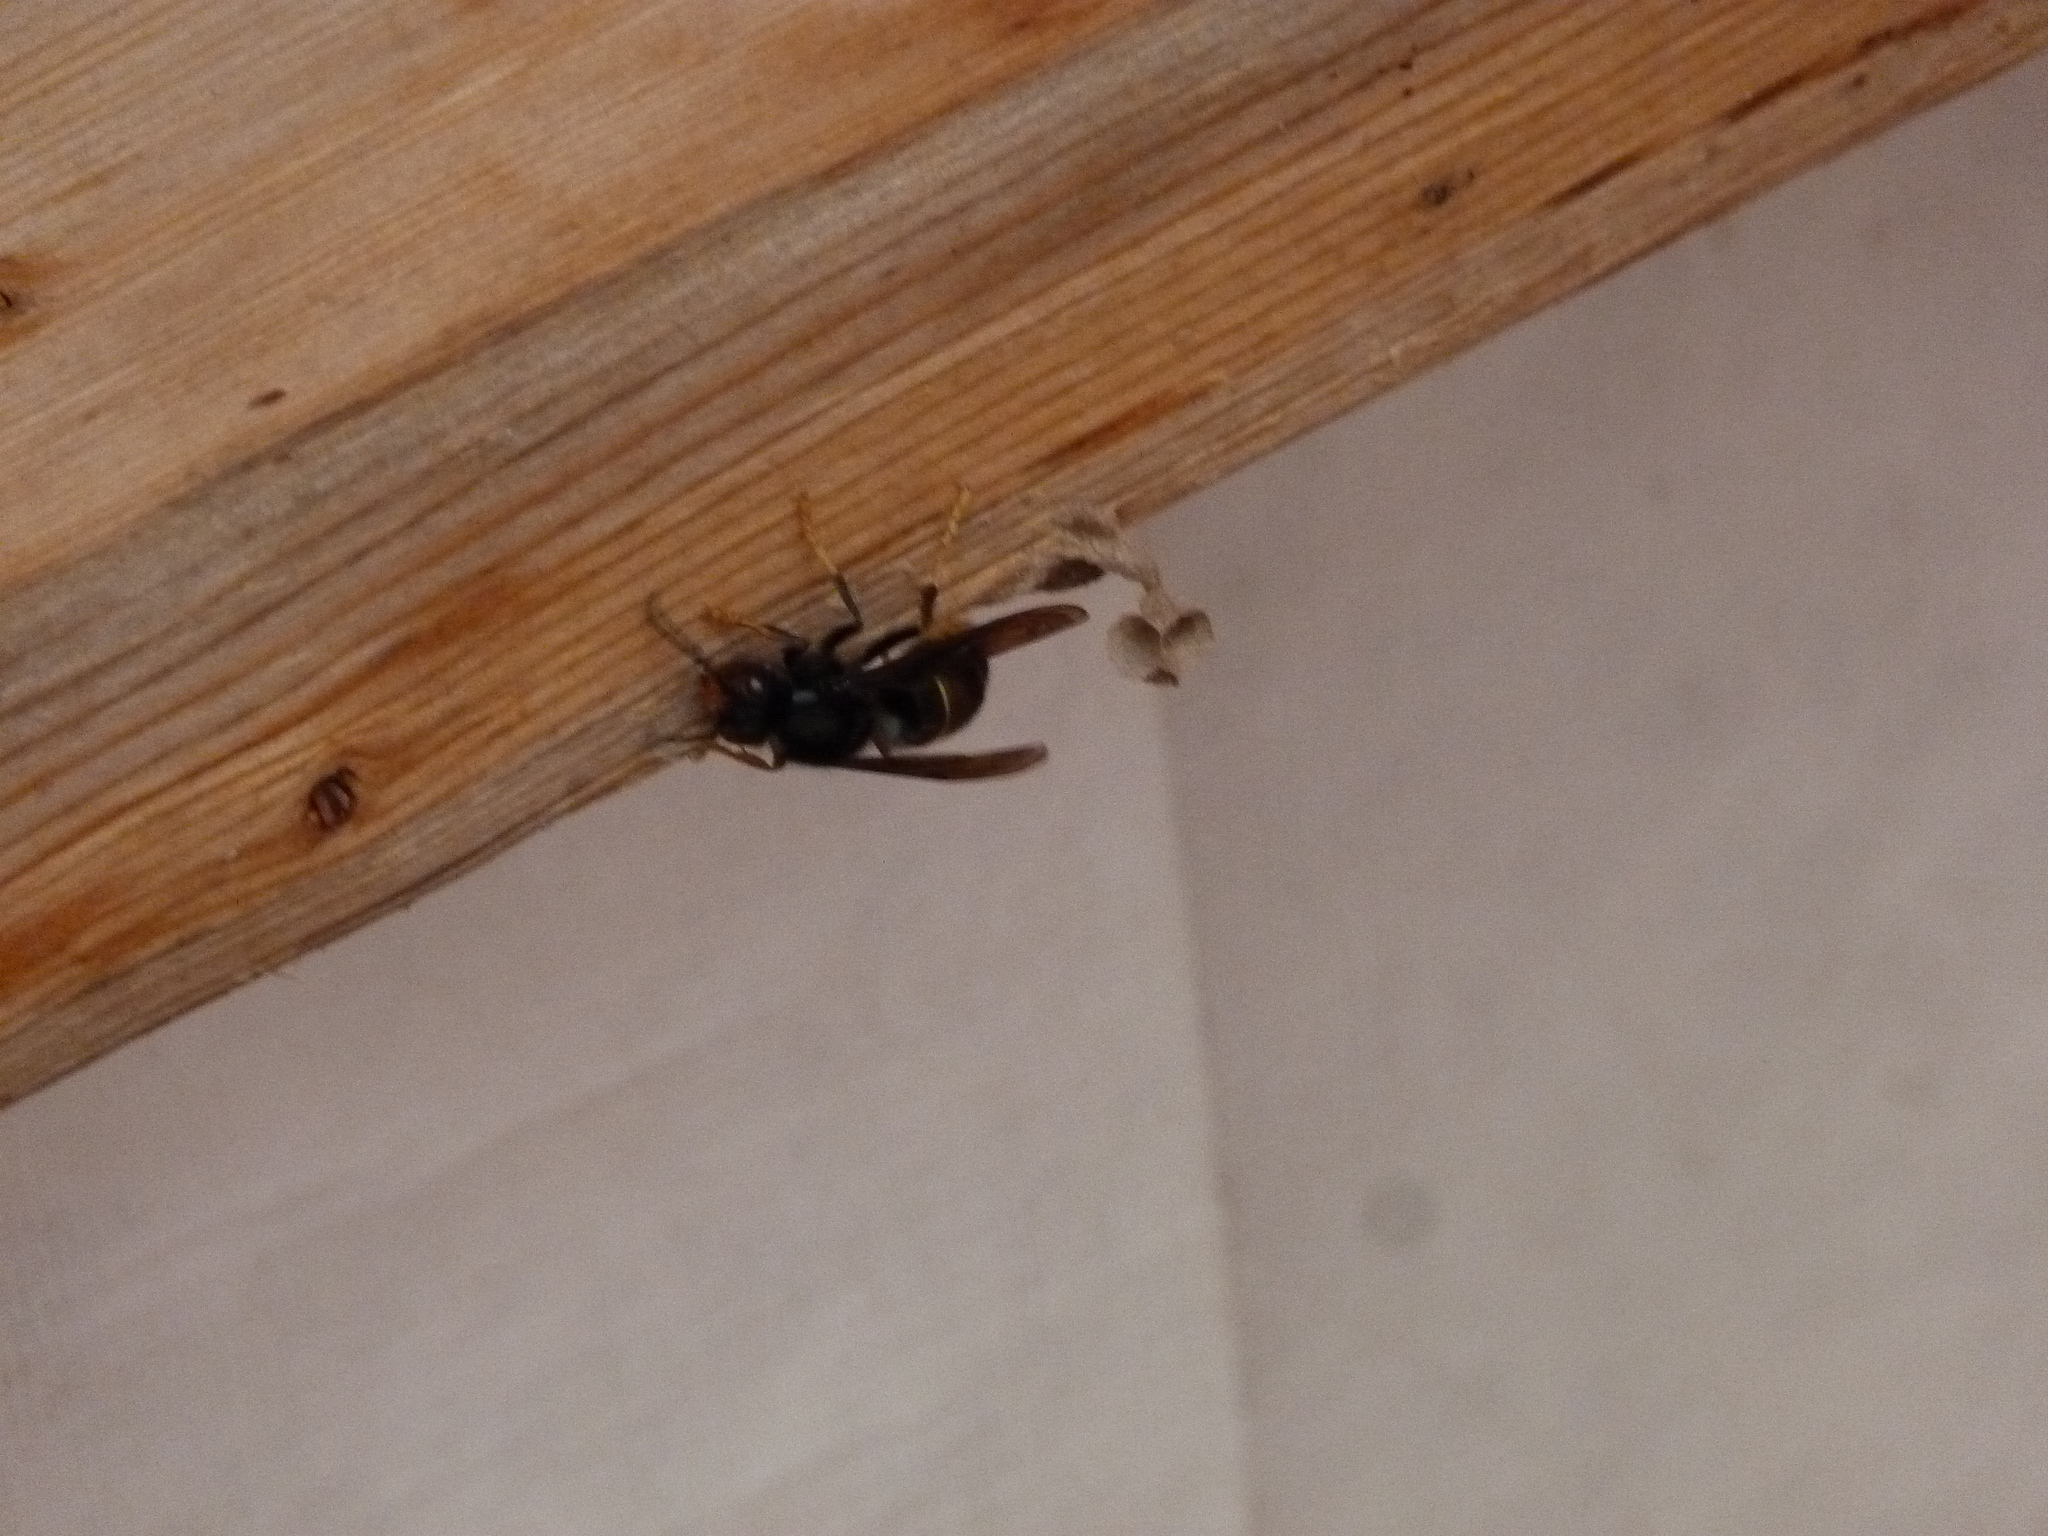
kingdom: Animalia
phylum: Arthropoda
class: Insecta
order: Hymenoptera
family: Vespidae
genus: Vespa
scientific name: Vespa velutina
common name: Asian hornet
